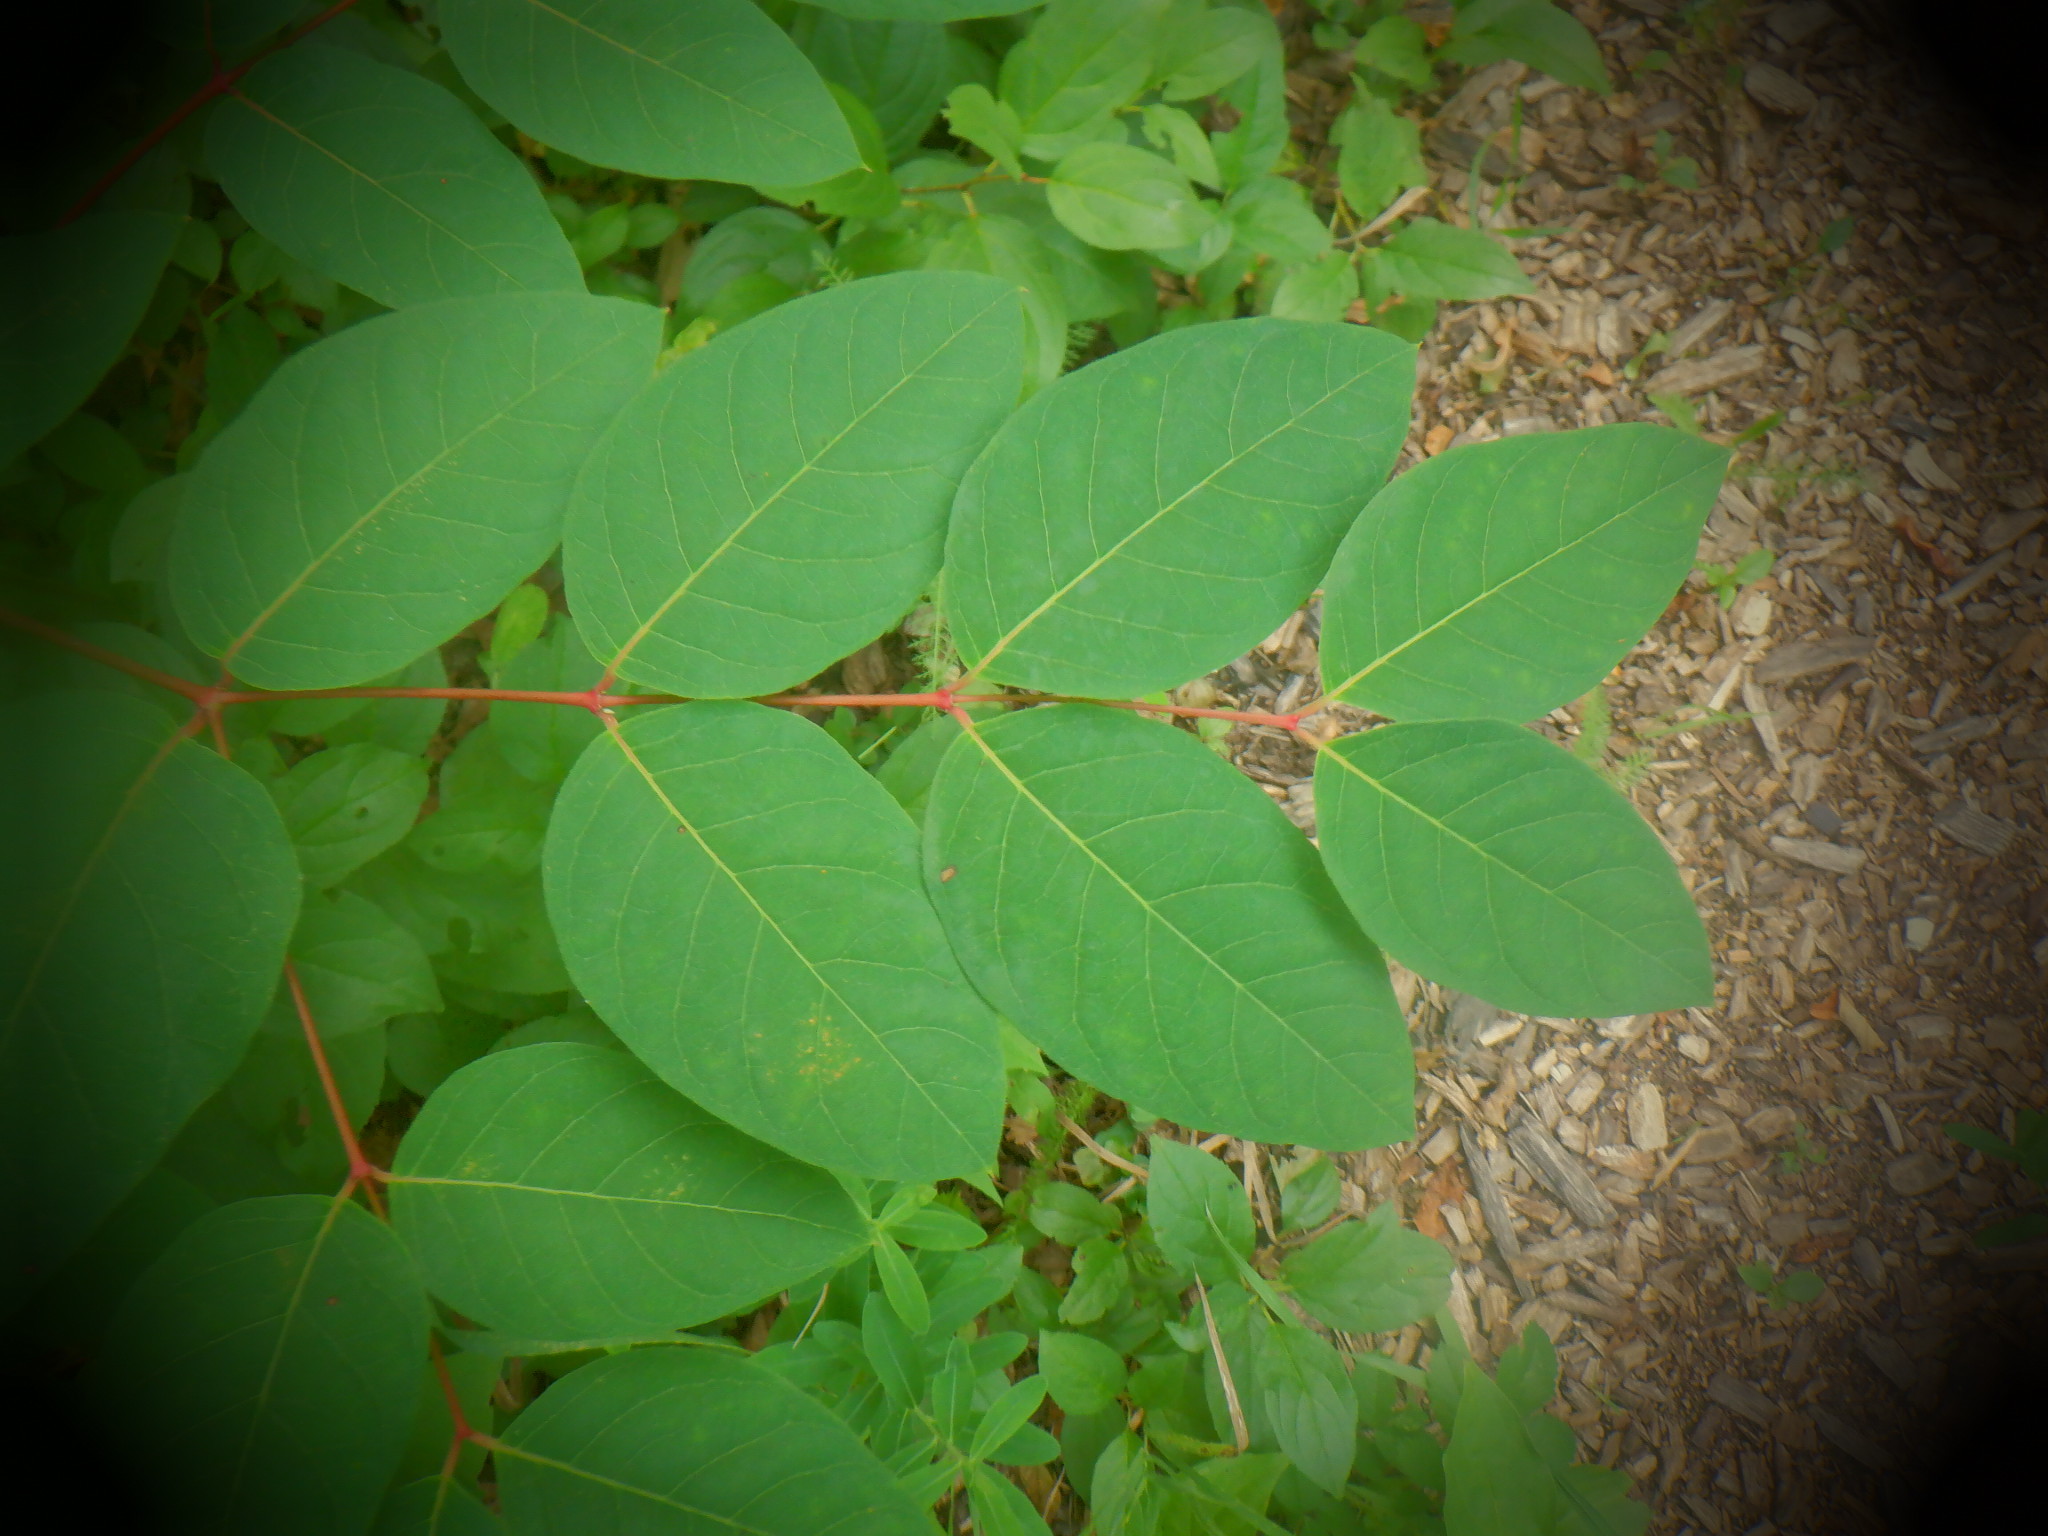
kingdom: Plantae
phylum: Tracheophyta
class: Magnoliopsida
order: Gentianales
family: Apocynaceae
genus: Apocynum
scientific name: Apocynum androsaemifolium
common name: Spreading dogbane
